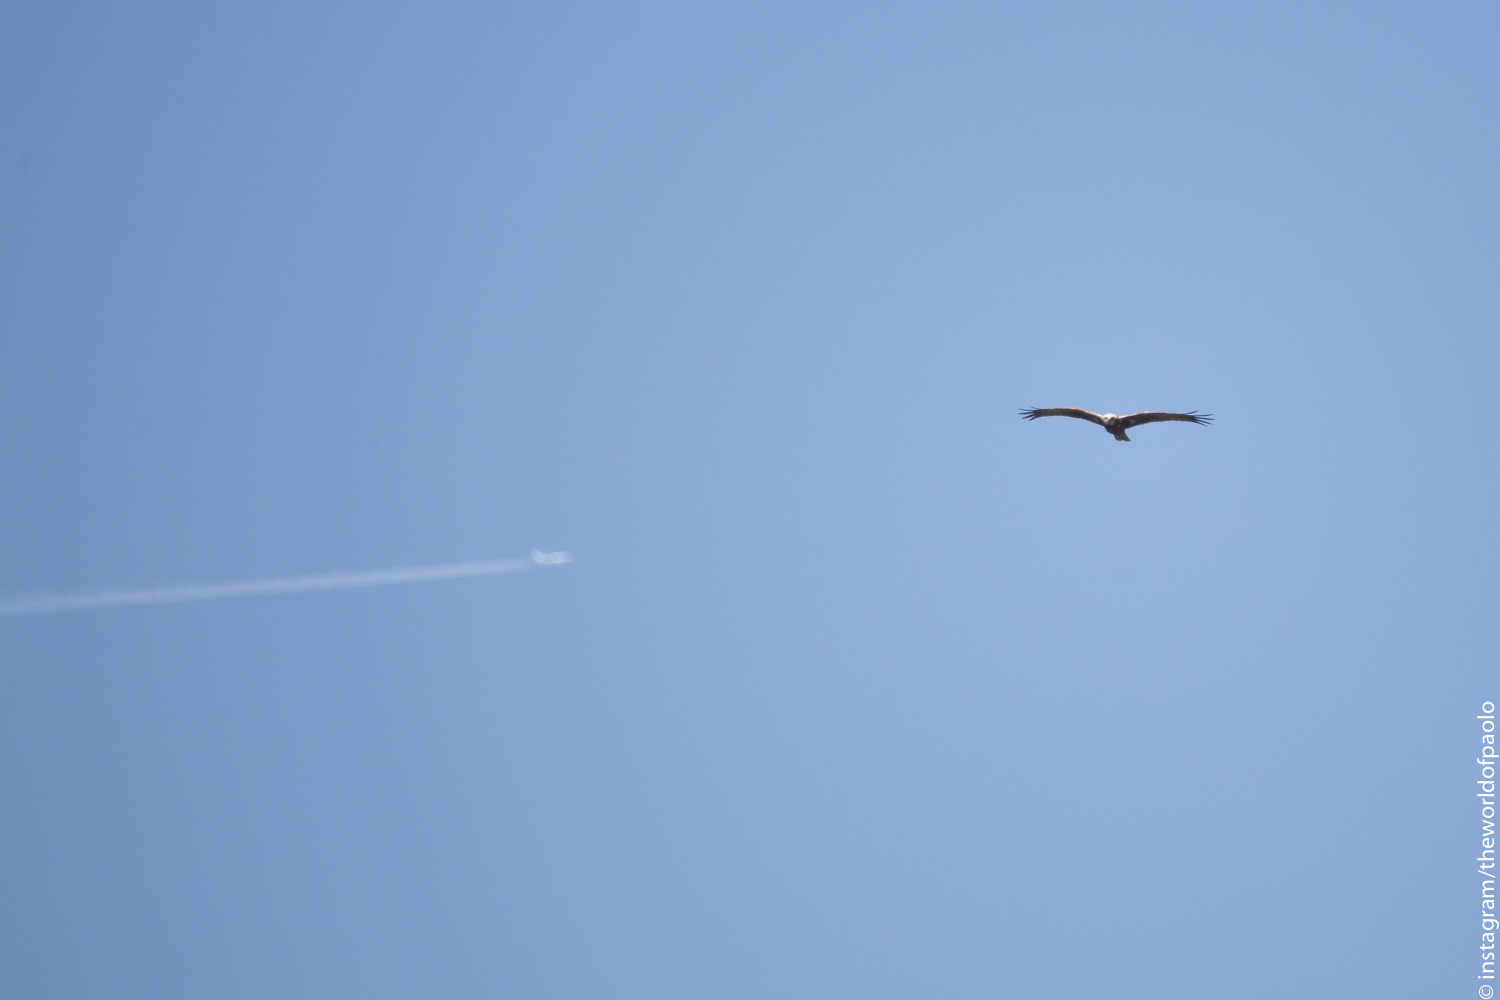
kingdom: Animalia
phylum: Chordata
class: Aves
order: Accipitriformes
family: Accipitridae
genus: Circus
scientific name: Circus aeruginosus
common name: Western marsh harrier
